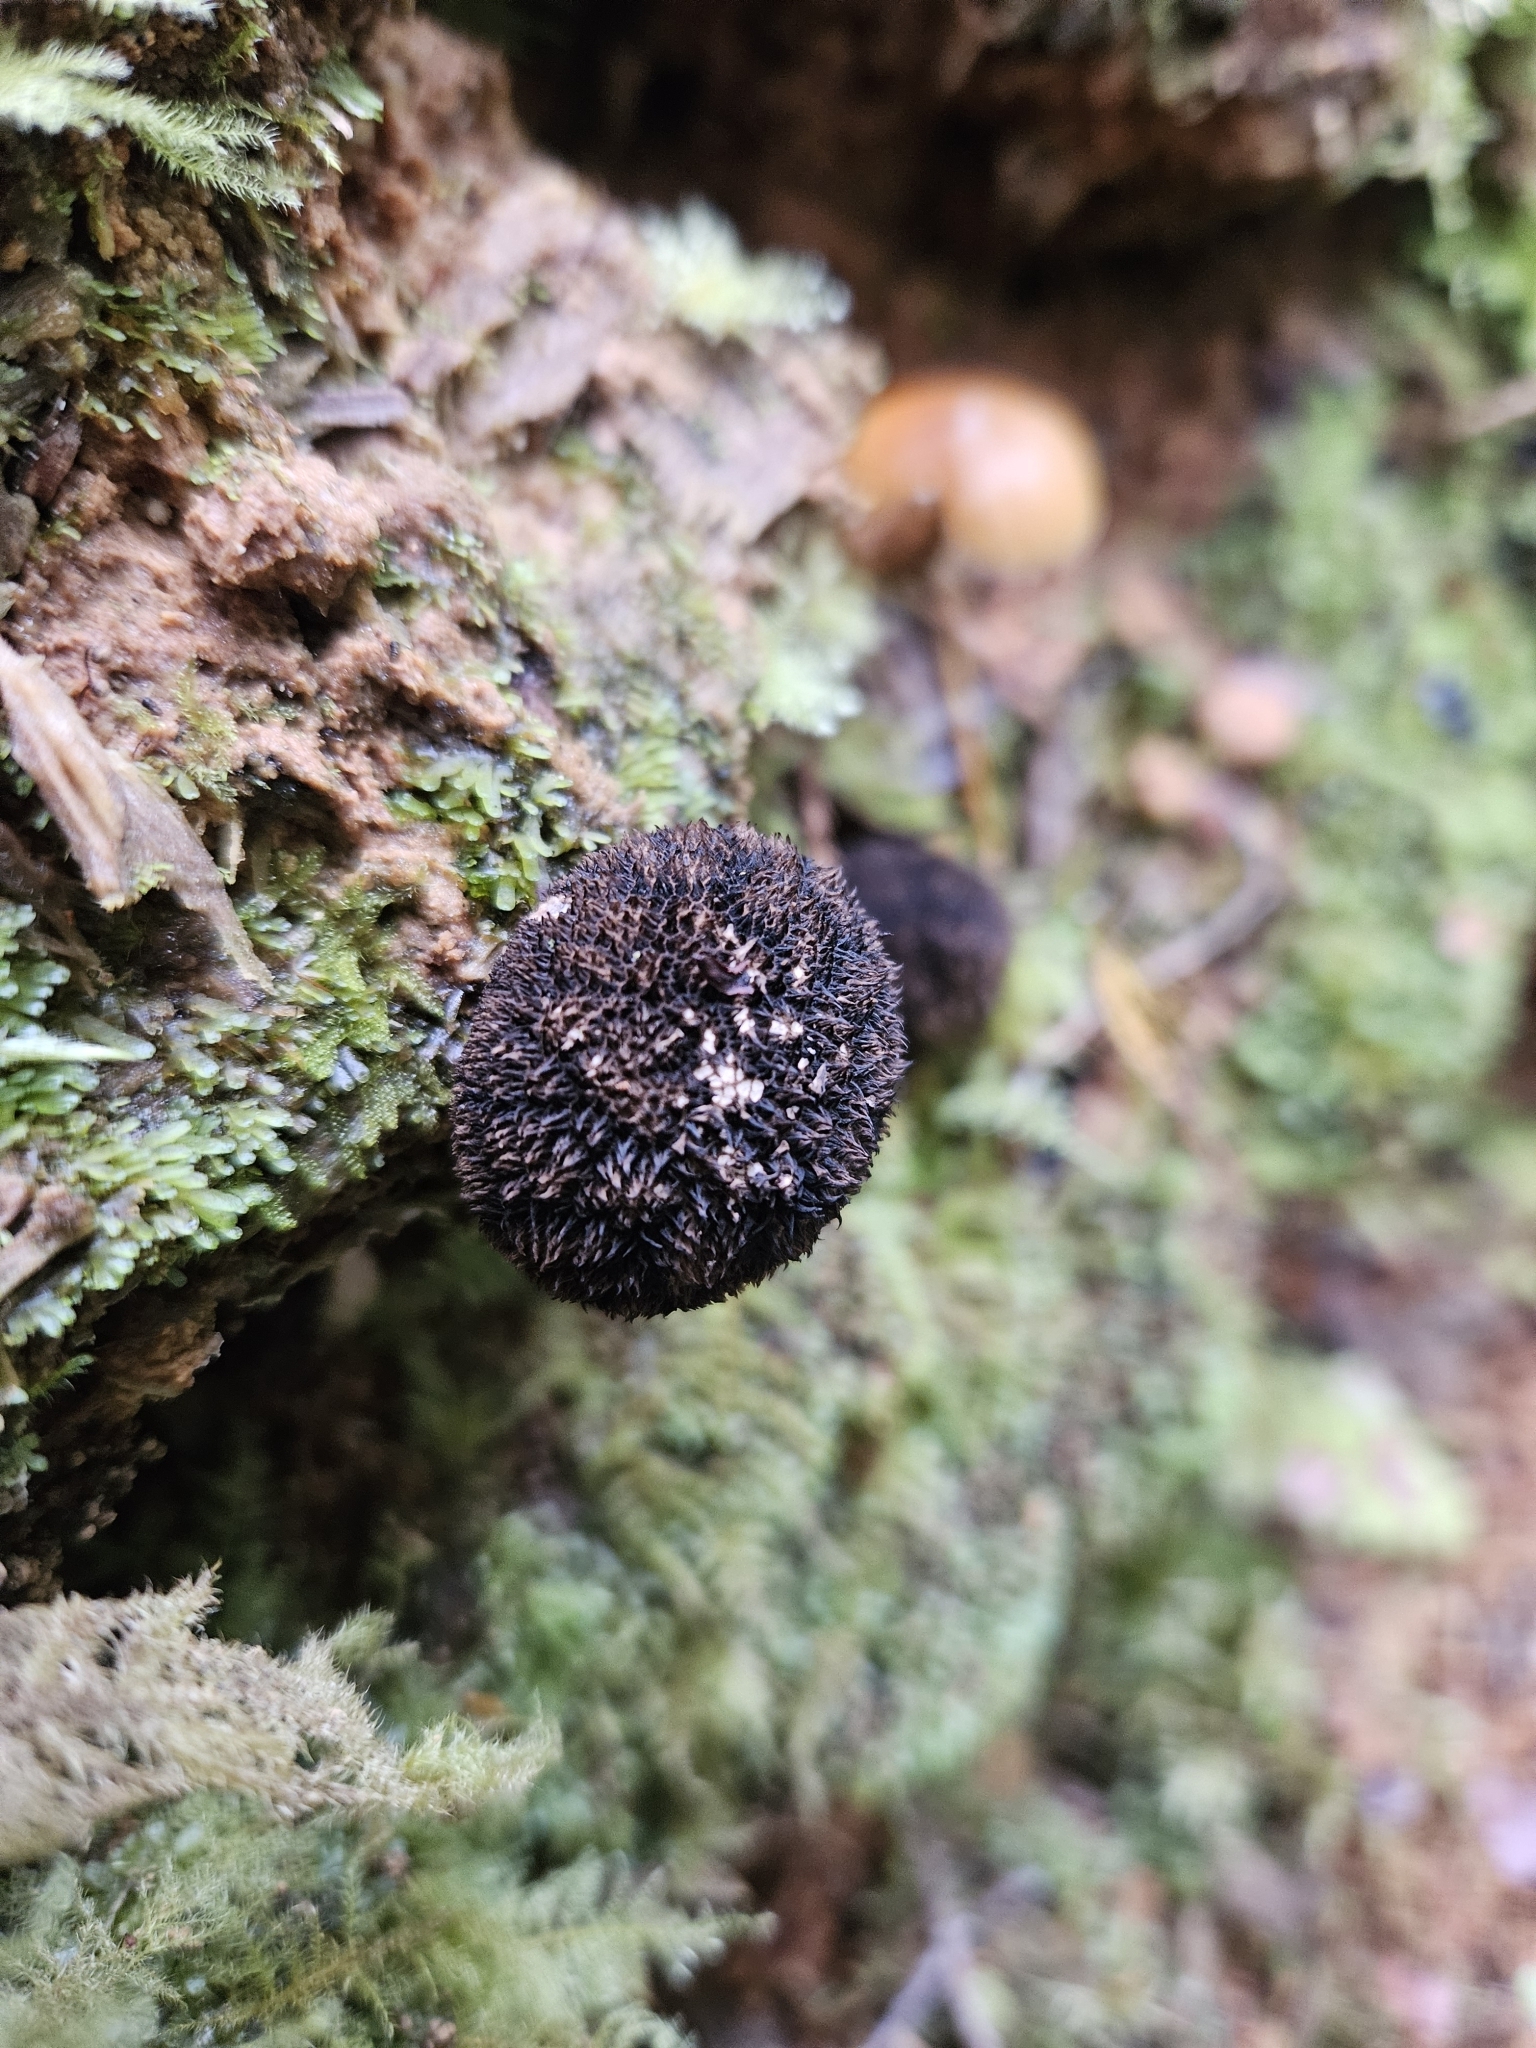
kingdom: Fungi
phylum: Basidiomycota
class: Agaricomycetes
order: Agaricales
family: Lycoperdaceae
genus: Lycoperdon
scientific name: Lycoperdon compactum
